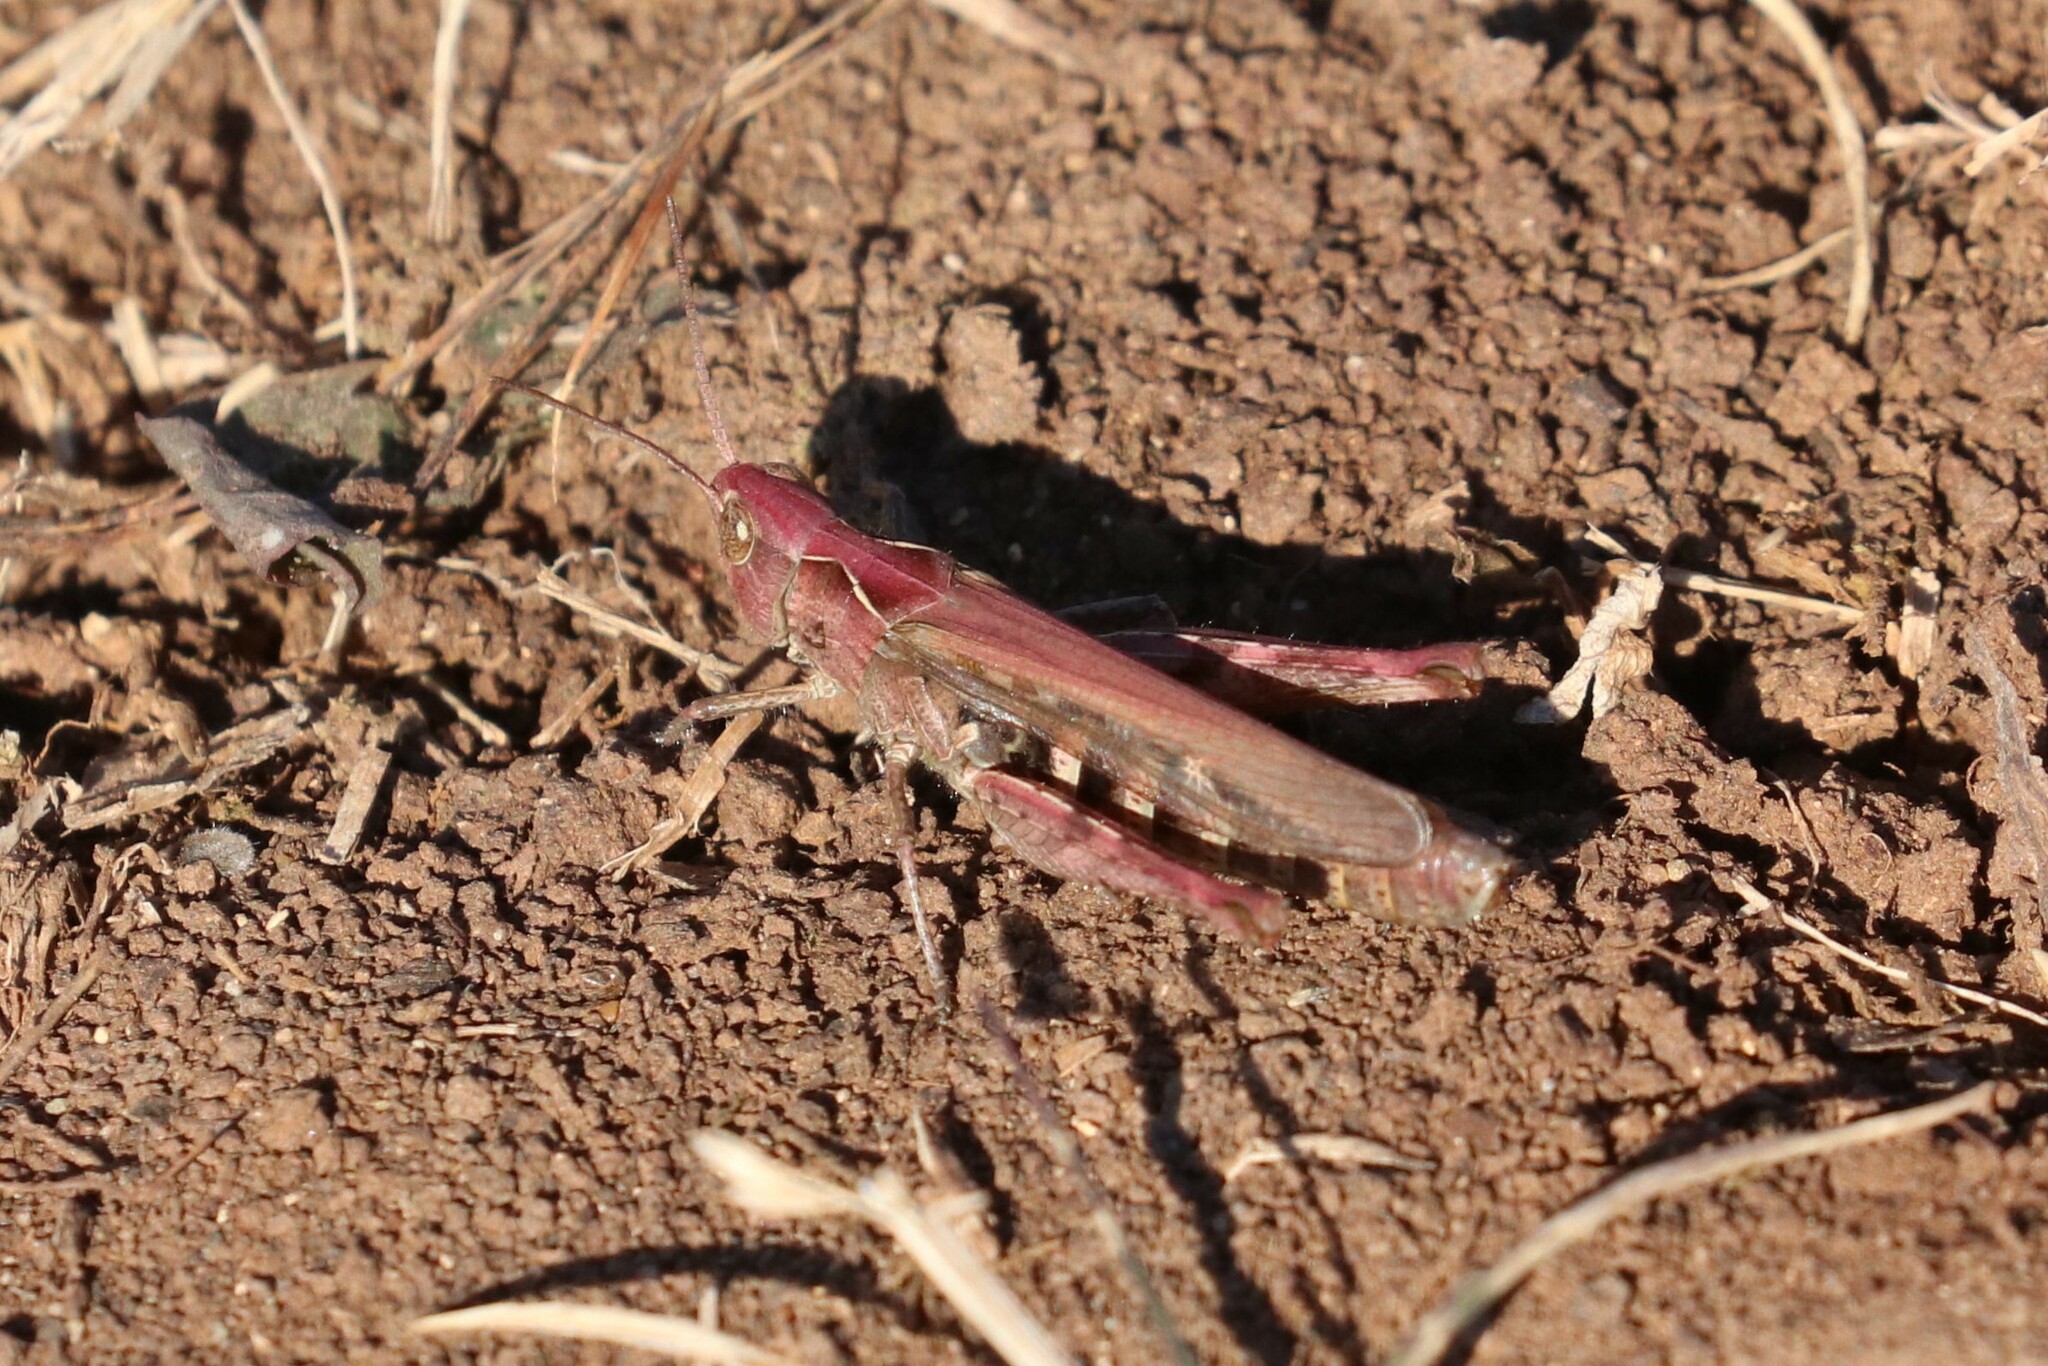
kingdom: Animalia
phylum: Arthropoda
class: Insecta
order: Orthoptera
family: Acrididae
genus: Chorthippus
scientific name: Chorthippus biguttulus
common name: Bow-winged grasshopper
